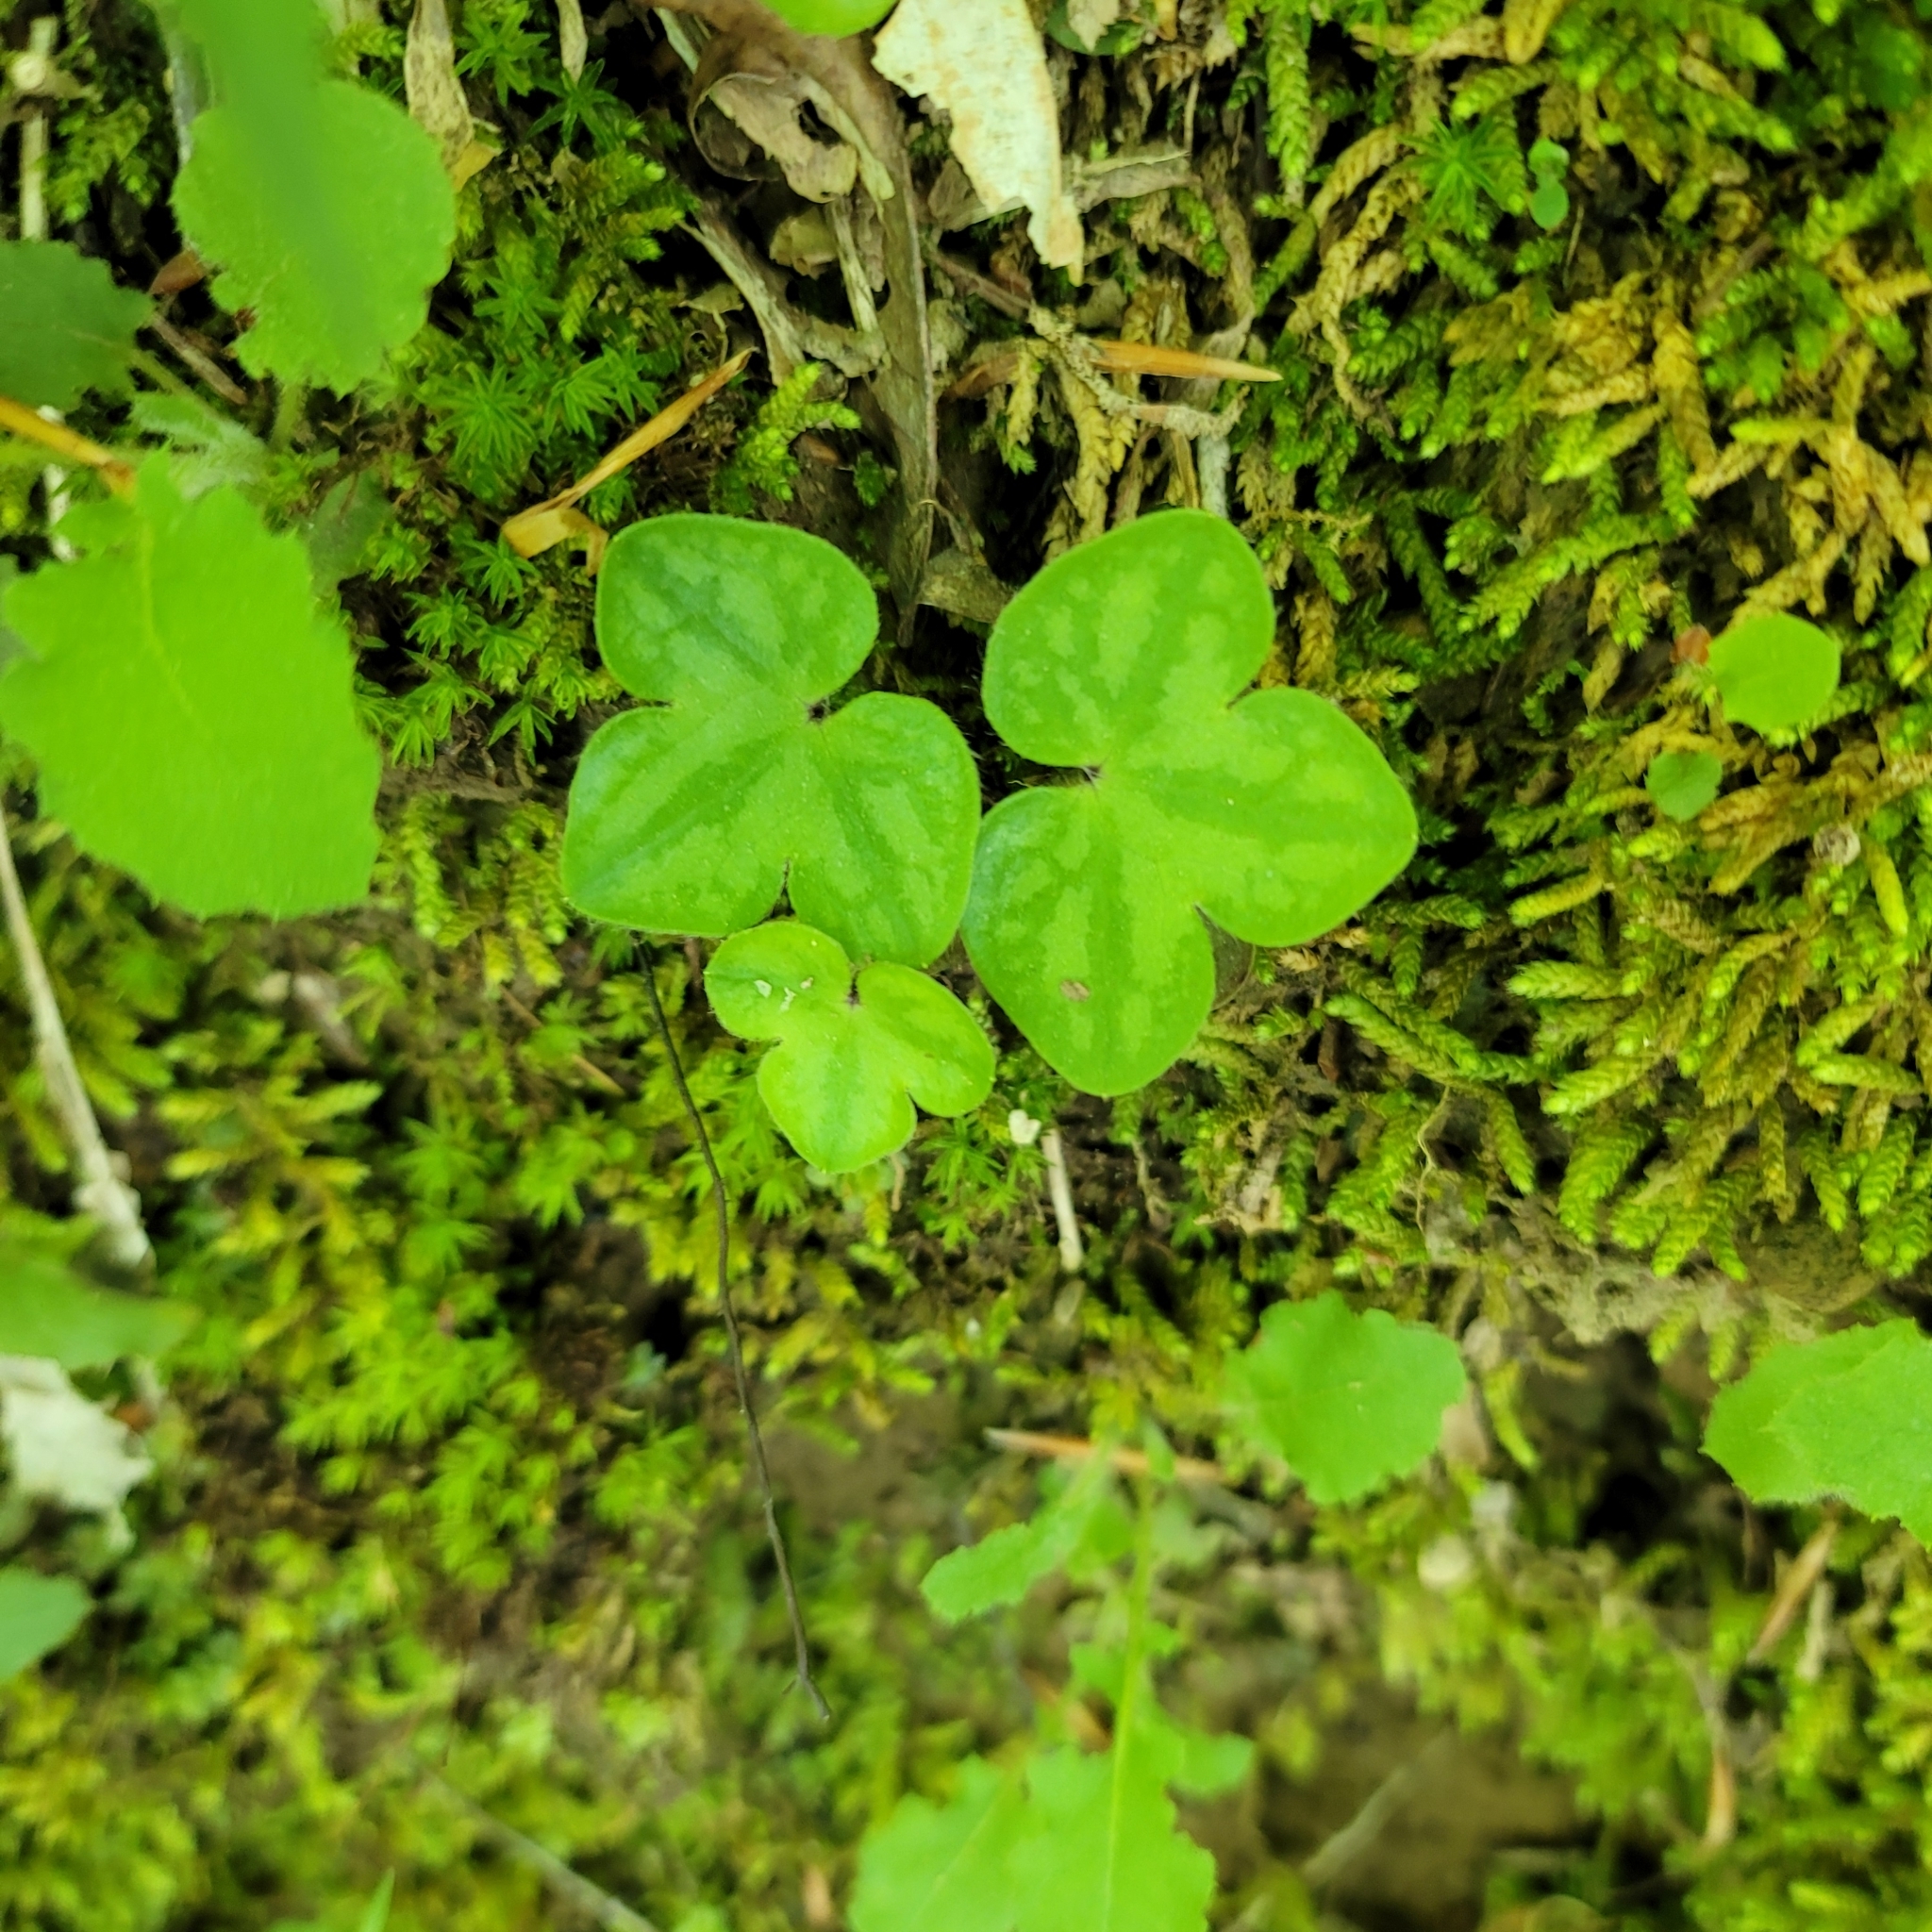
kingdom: Plantae
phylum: Tracheophyta
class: Magnoliopsida
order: Ranunculales
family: Ranunculaceae
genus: Hepatica
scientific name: Hepatica americana
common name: American hepatica
